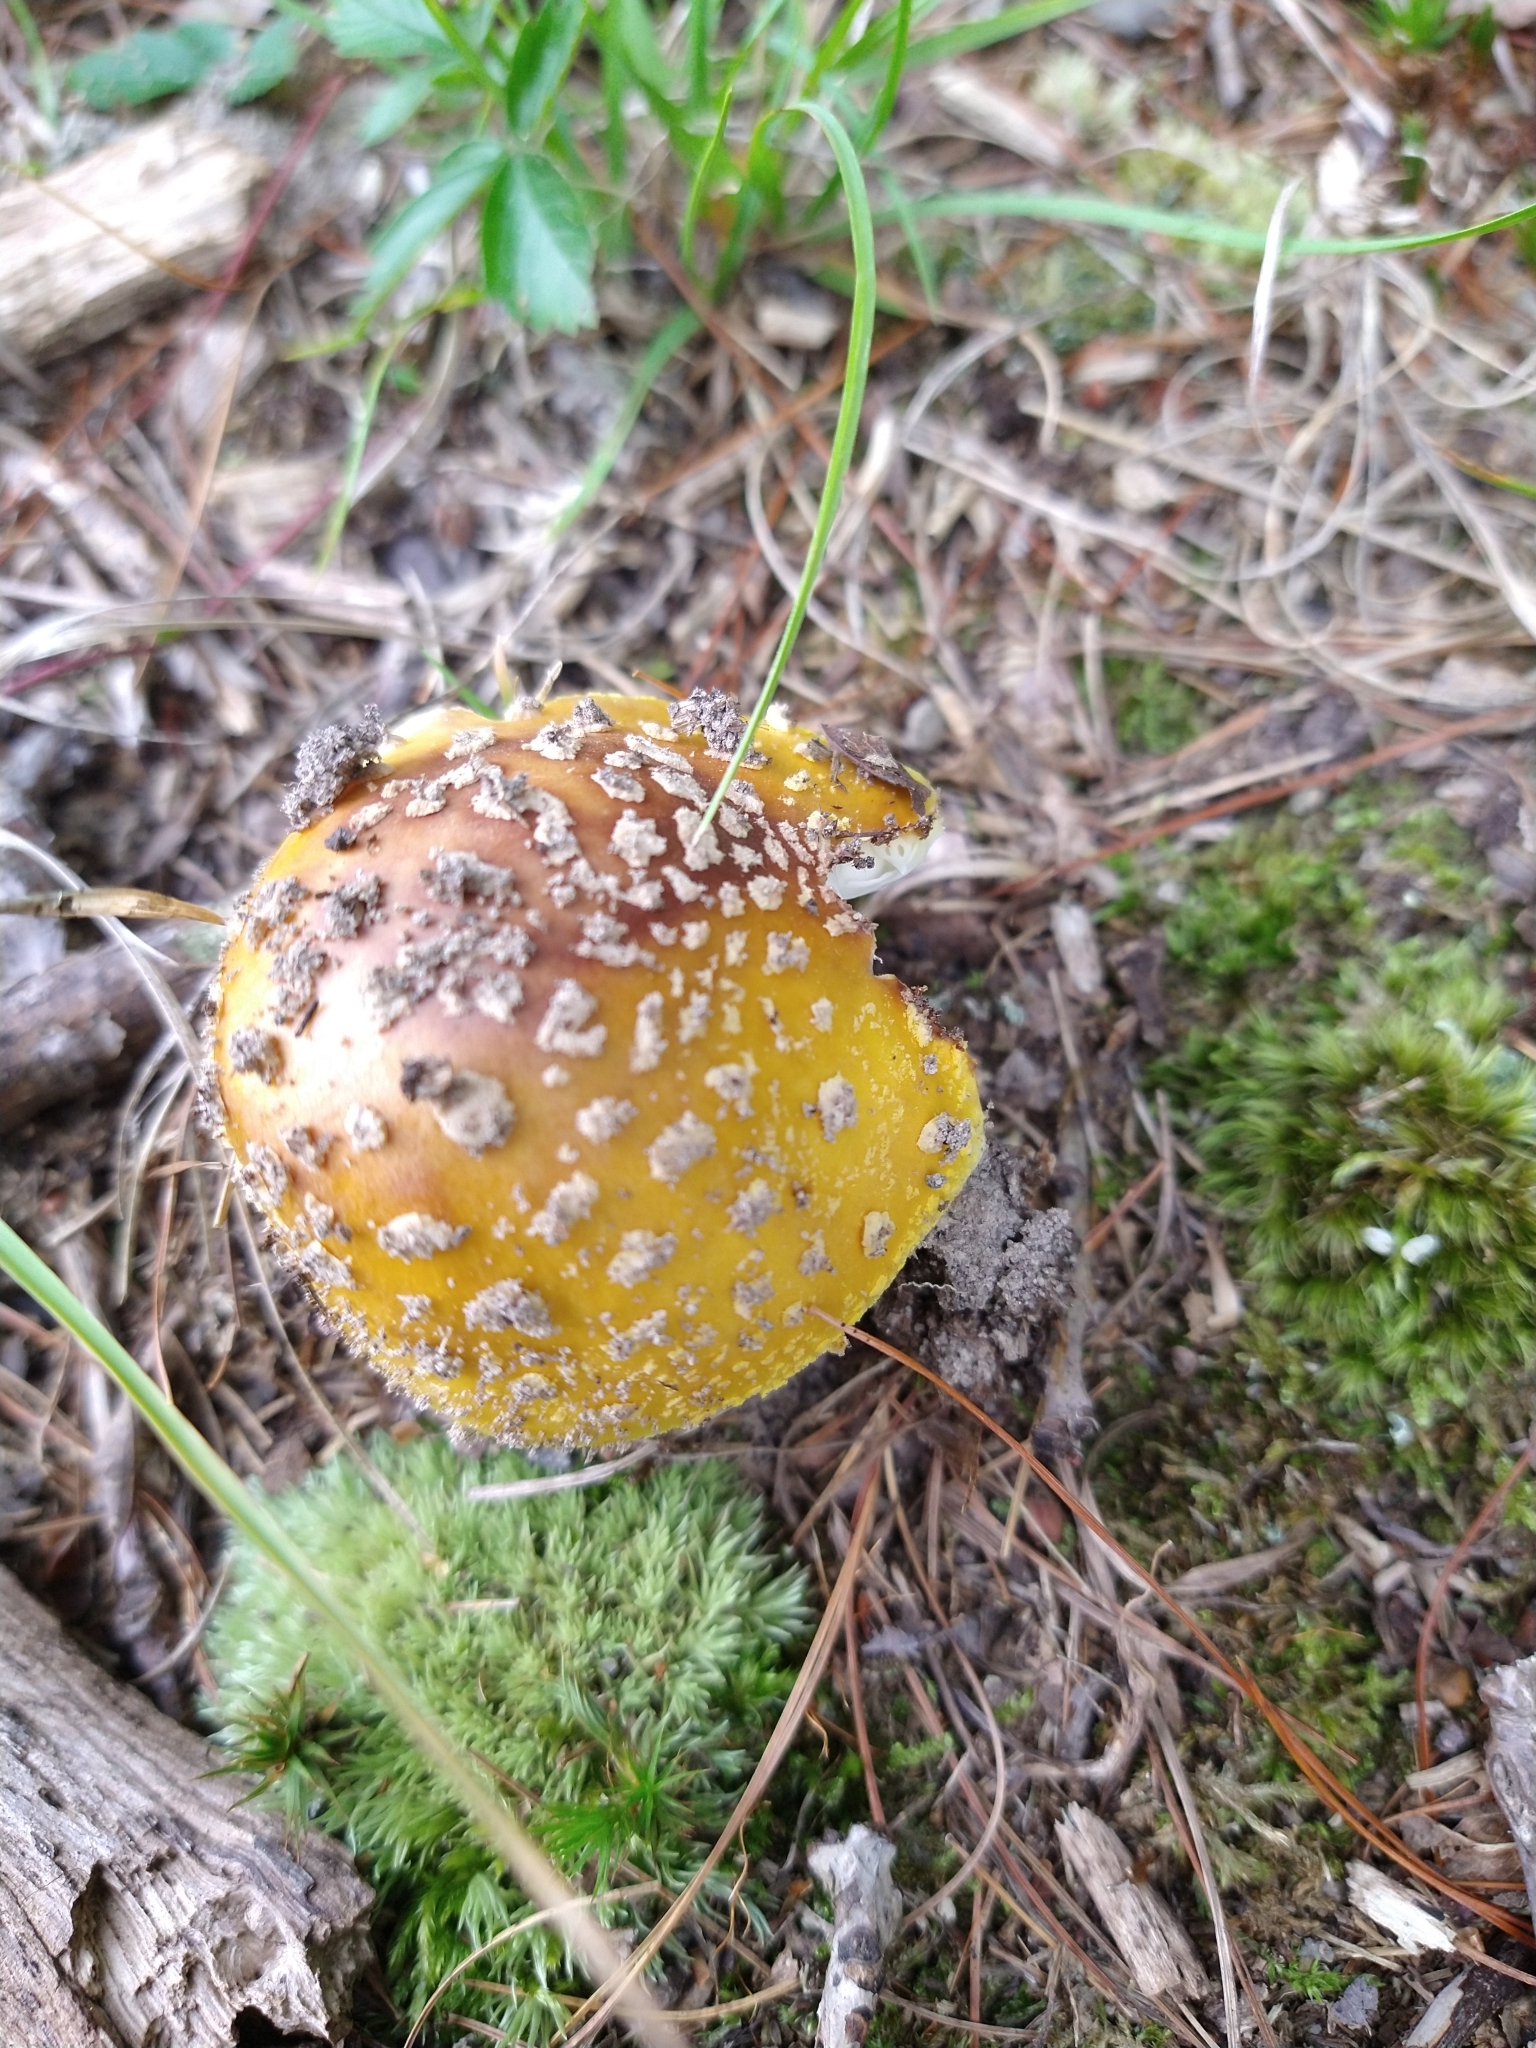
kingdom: Fungi
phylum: Basidiomycota
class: Agaricomycetes
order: Agaricales
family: Amanitaceae
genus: Amanita
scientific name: Amanita flavorubens
